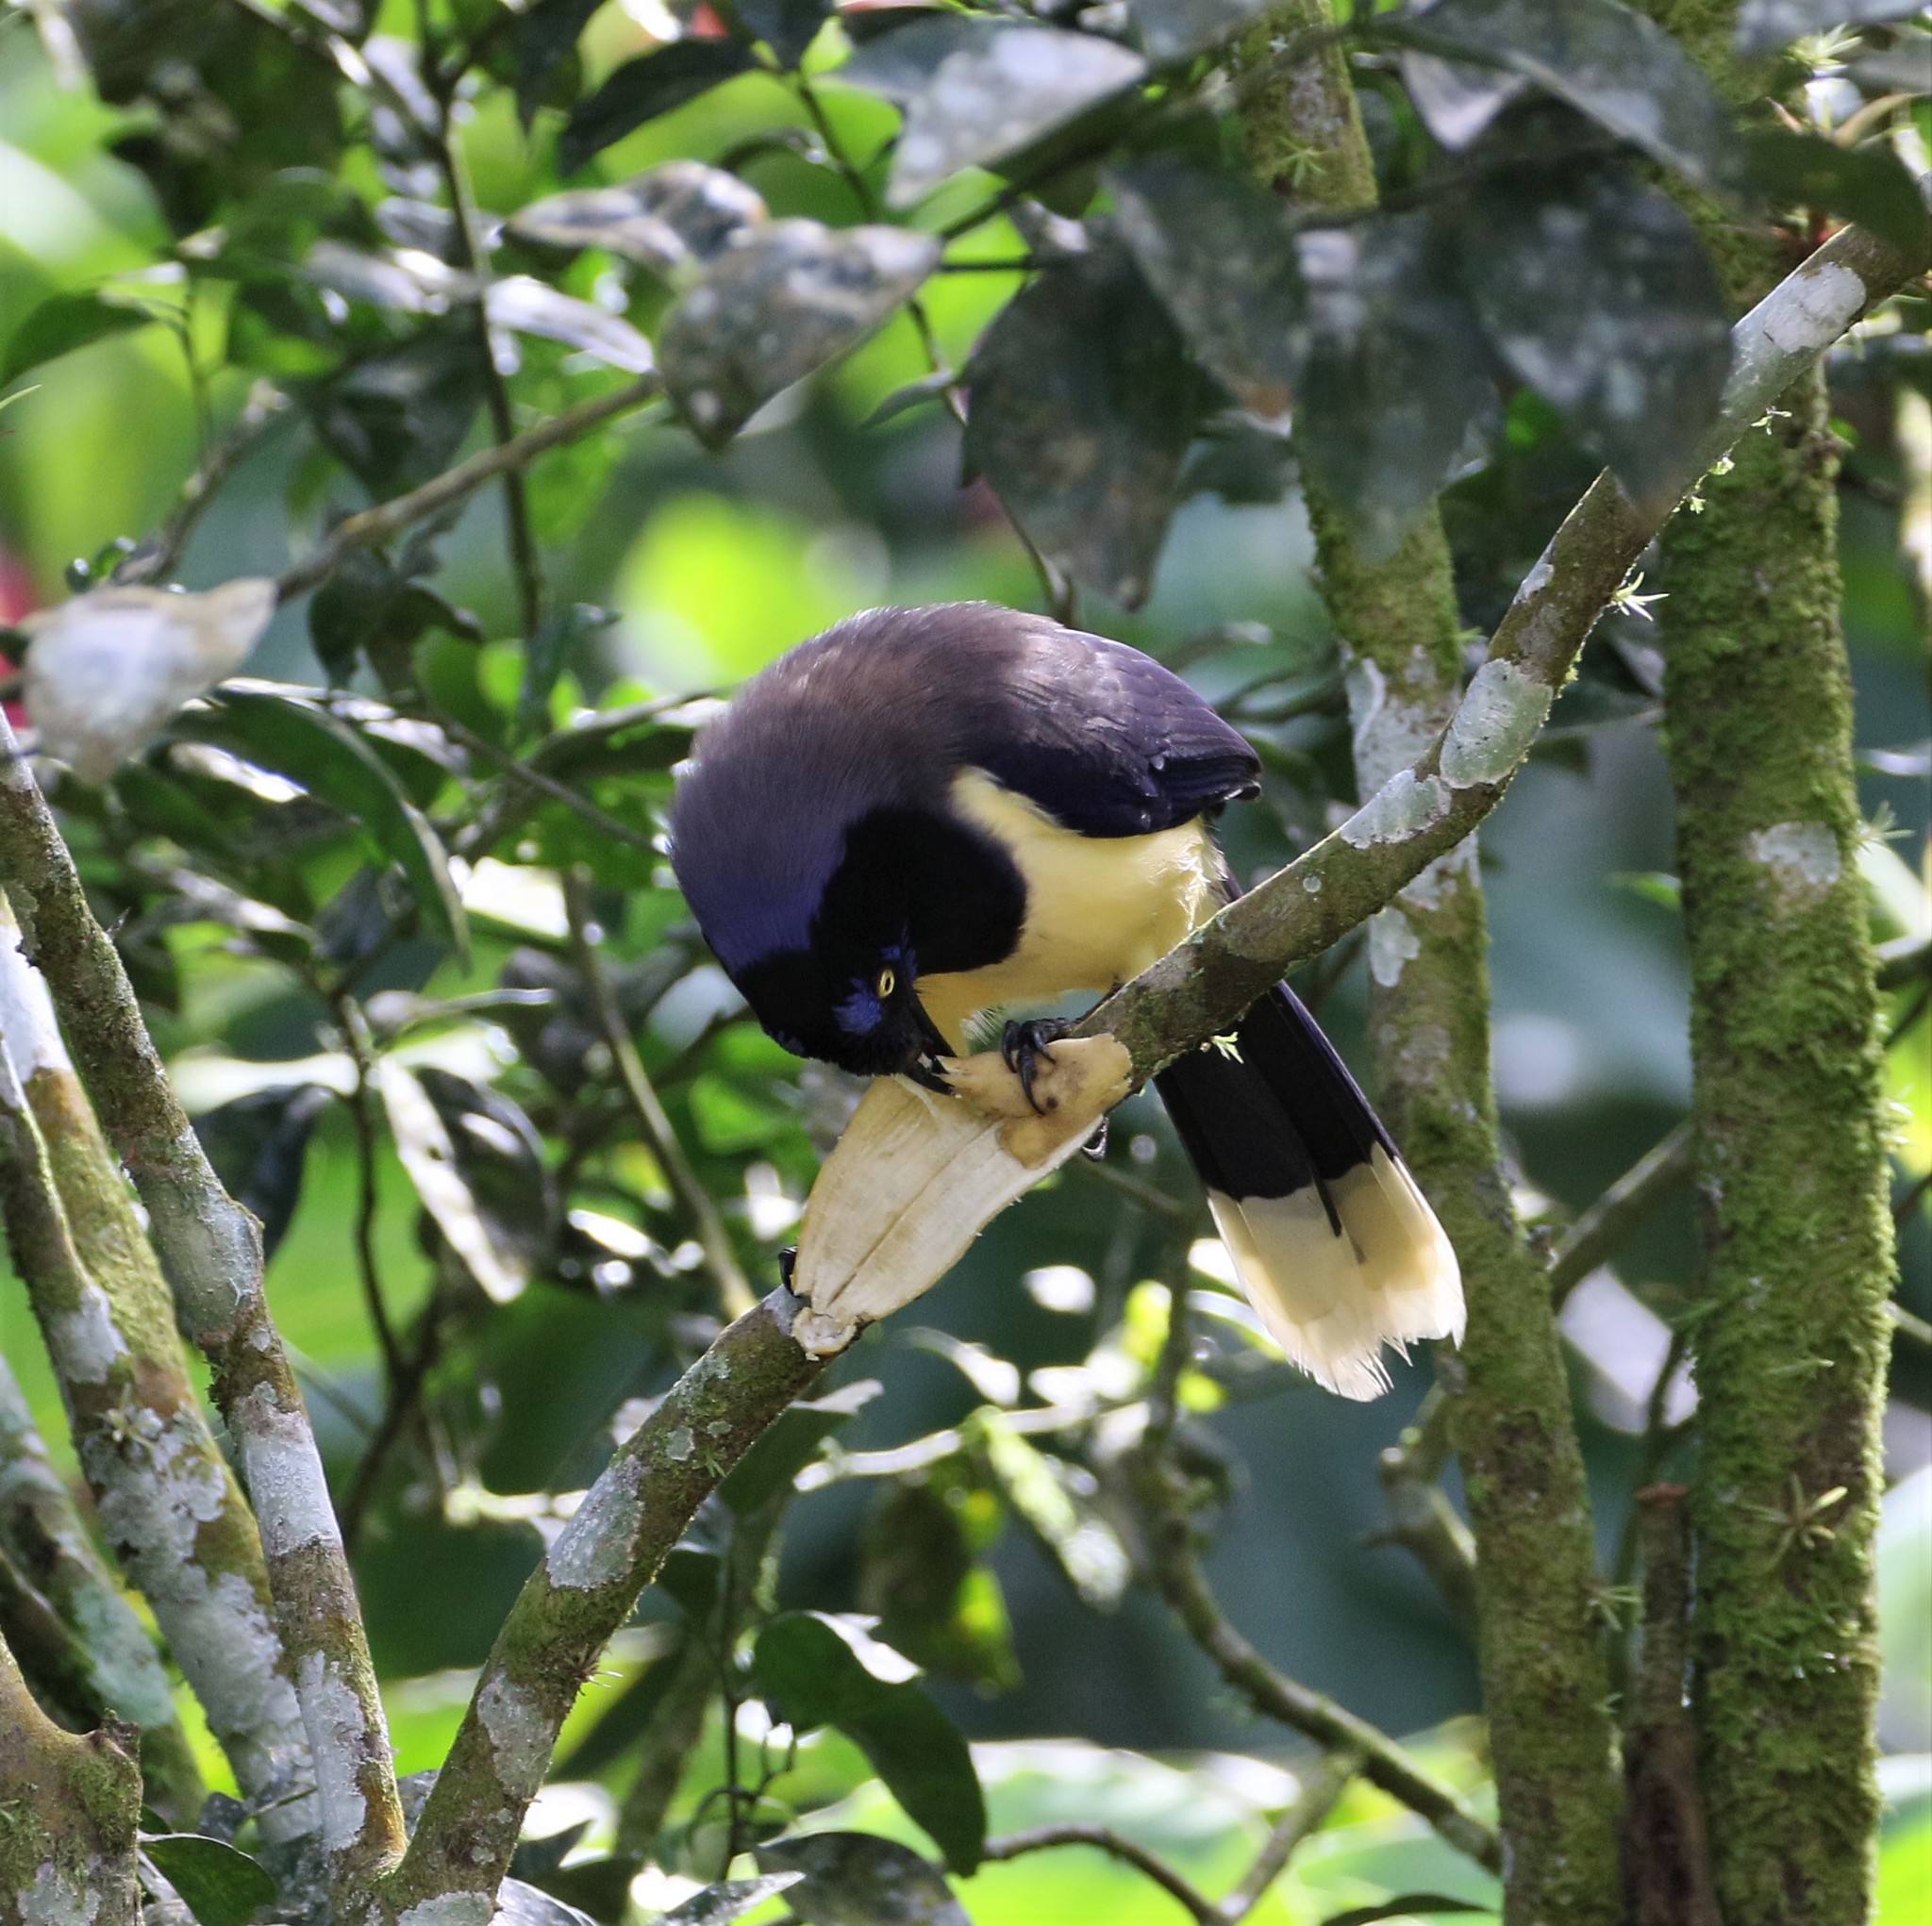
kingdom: Animalia
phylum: Chordata
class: Aves
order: Passeriformes
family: Corvidae
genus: Cyanocorax
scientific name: Cyanocorax affinis
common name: Black-chested jay
